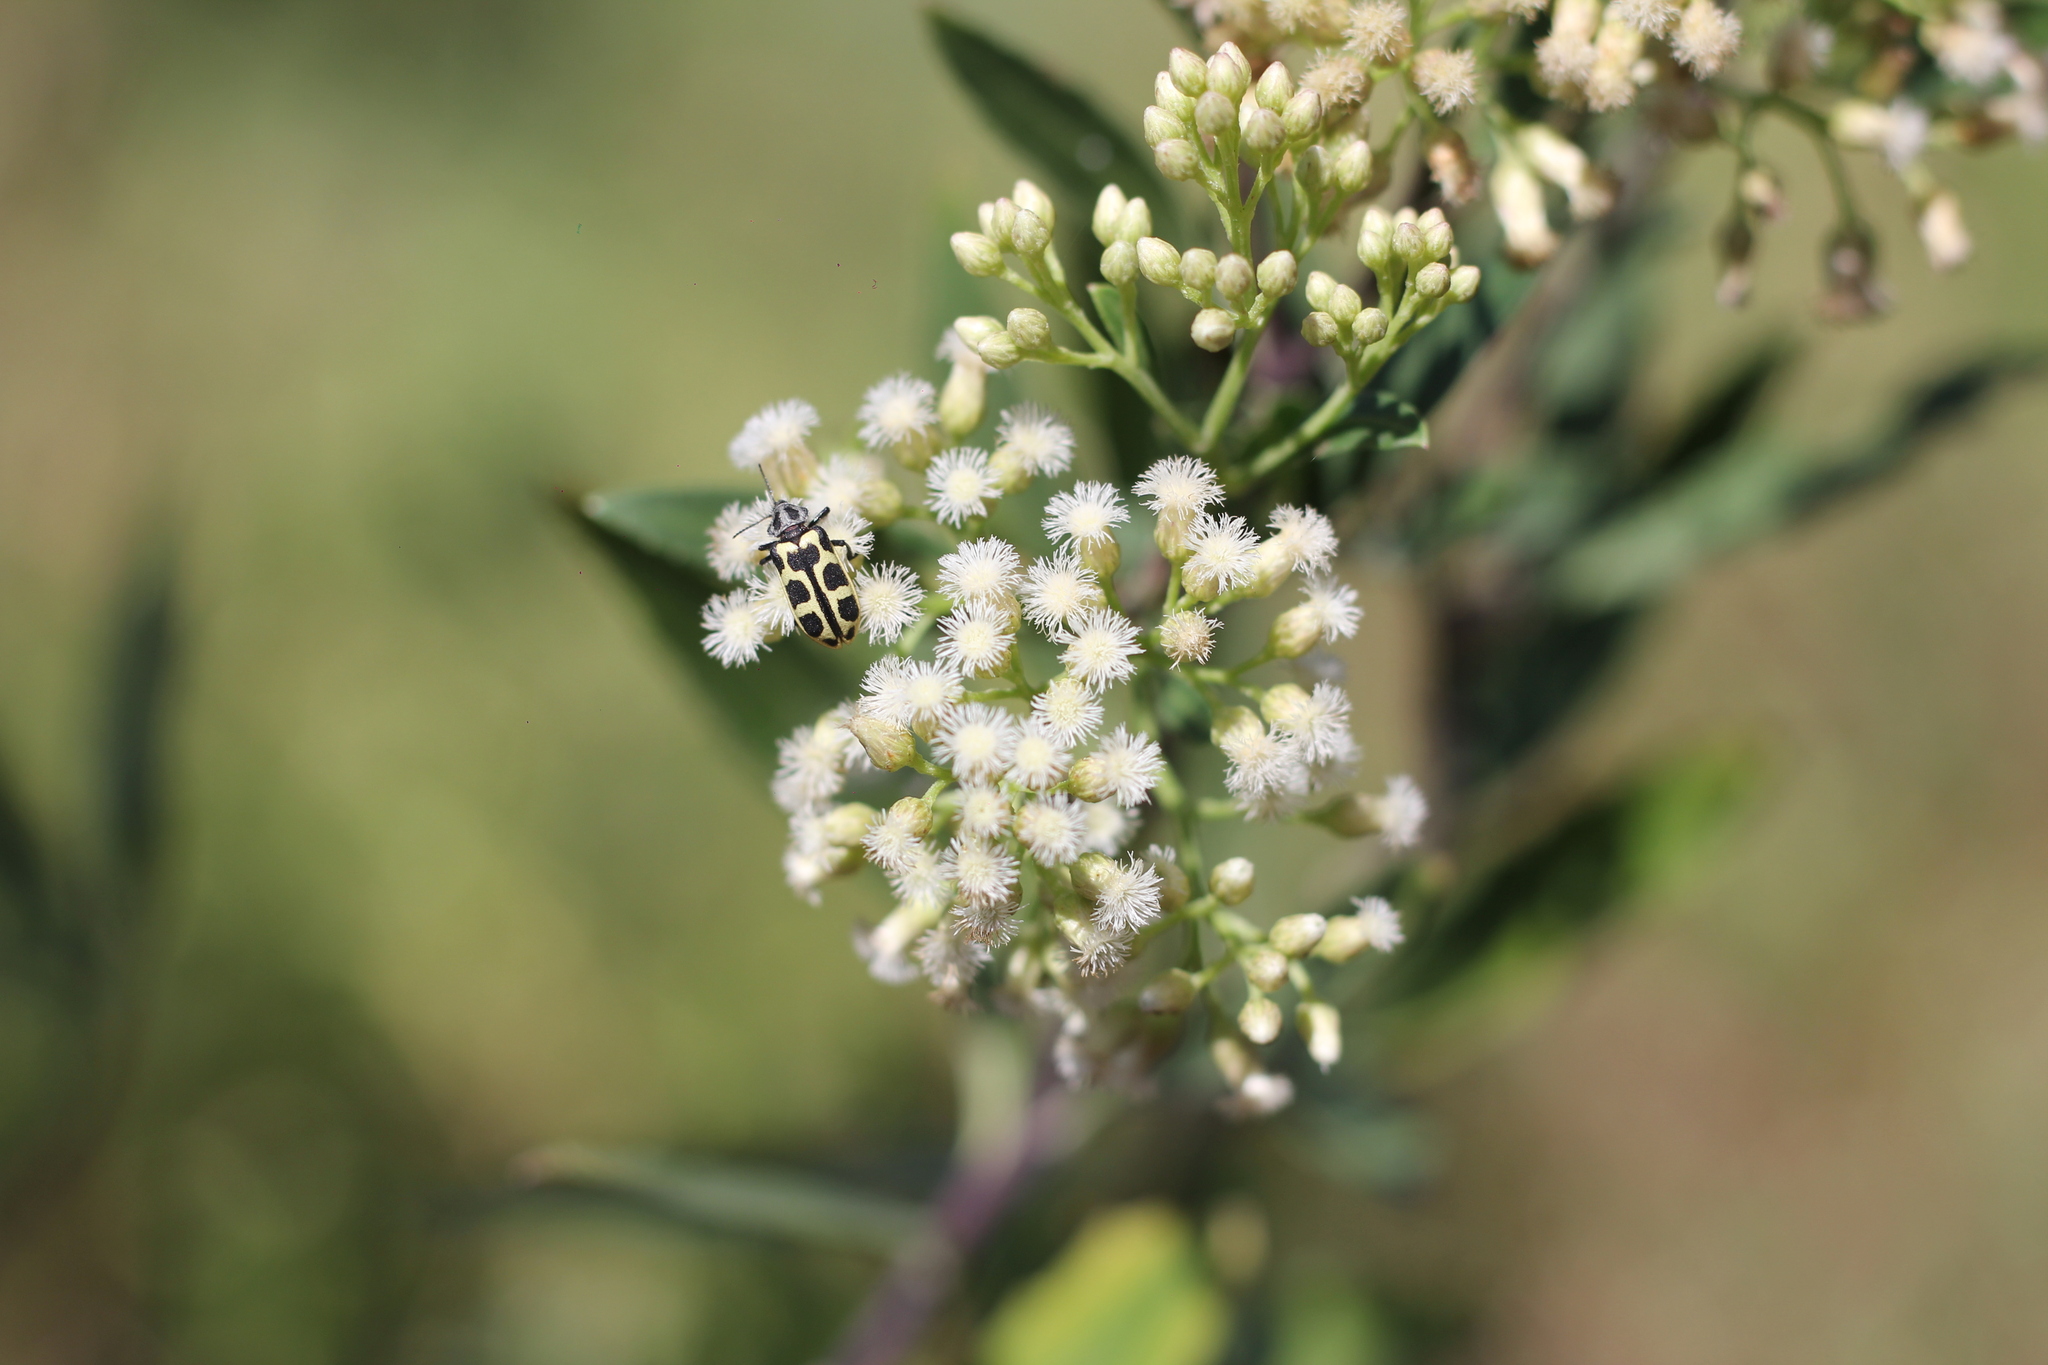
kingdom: Animalia
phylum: Arthropoda
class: Insecta
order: Coleoptera
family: Melyridae
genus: Astylus
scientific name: Astylus atromaculatus
